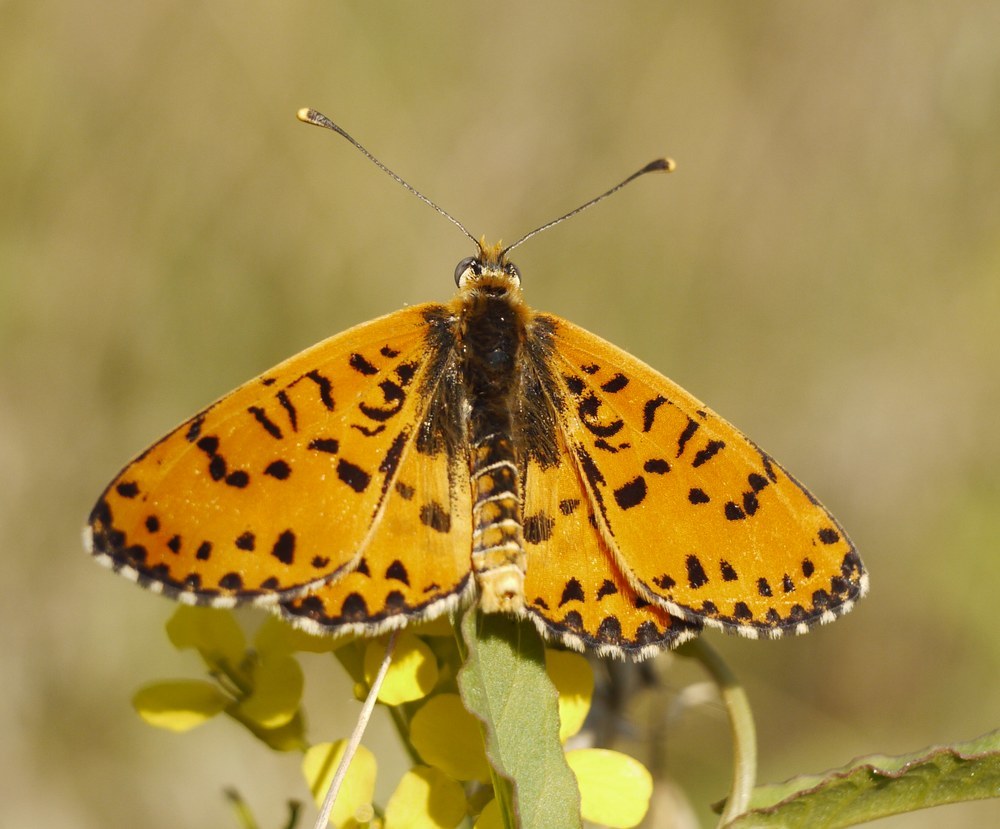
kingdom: Animalia
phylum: Arthropoda
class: Insecta
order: Lepidoptera
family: Nymphalidae
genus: Melitaea
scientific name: Melitaea didyma
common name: Spotted fritillary
